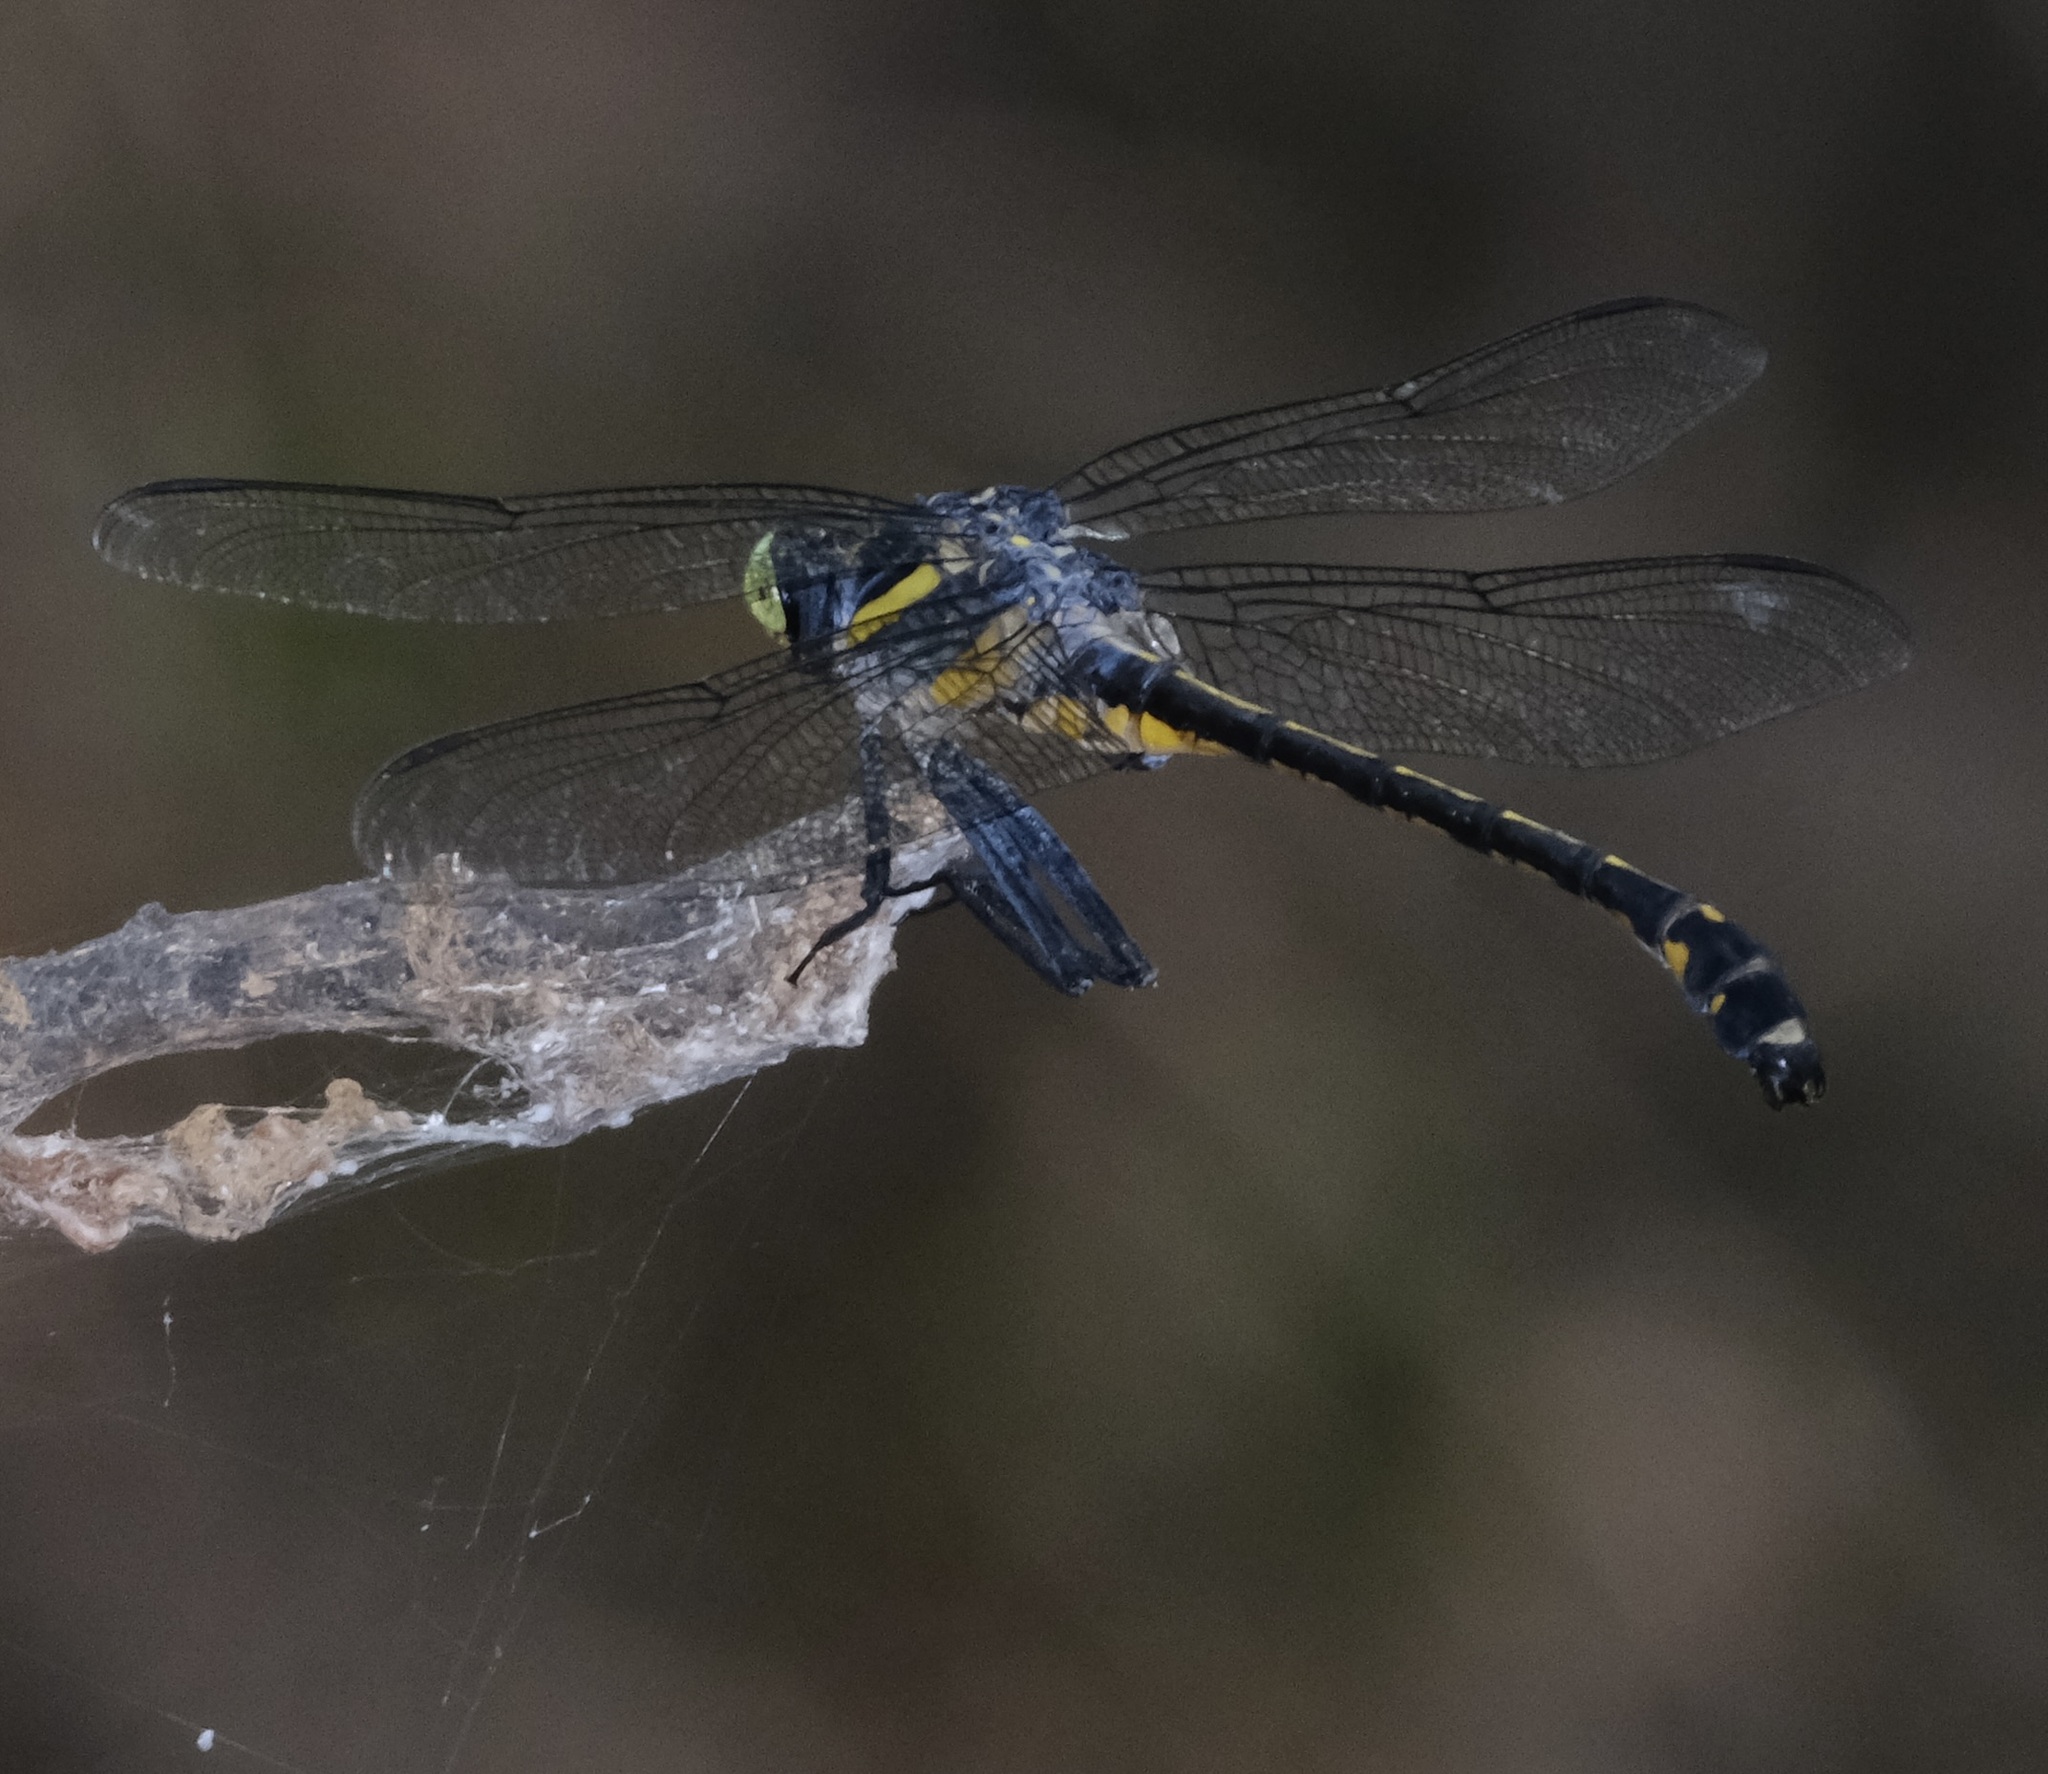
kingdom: Animalia
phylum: Arthropoda
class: Insecta
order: Odonata
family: Gomphidae
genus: Hagenius
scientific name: Hagenius brevistylus
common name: Dragonhunter
